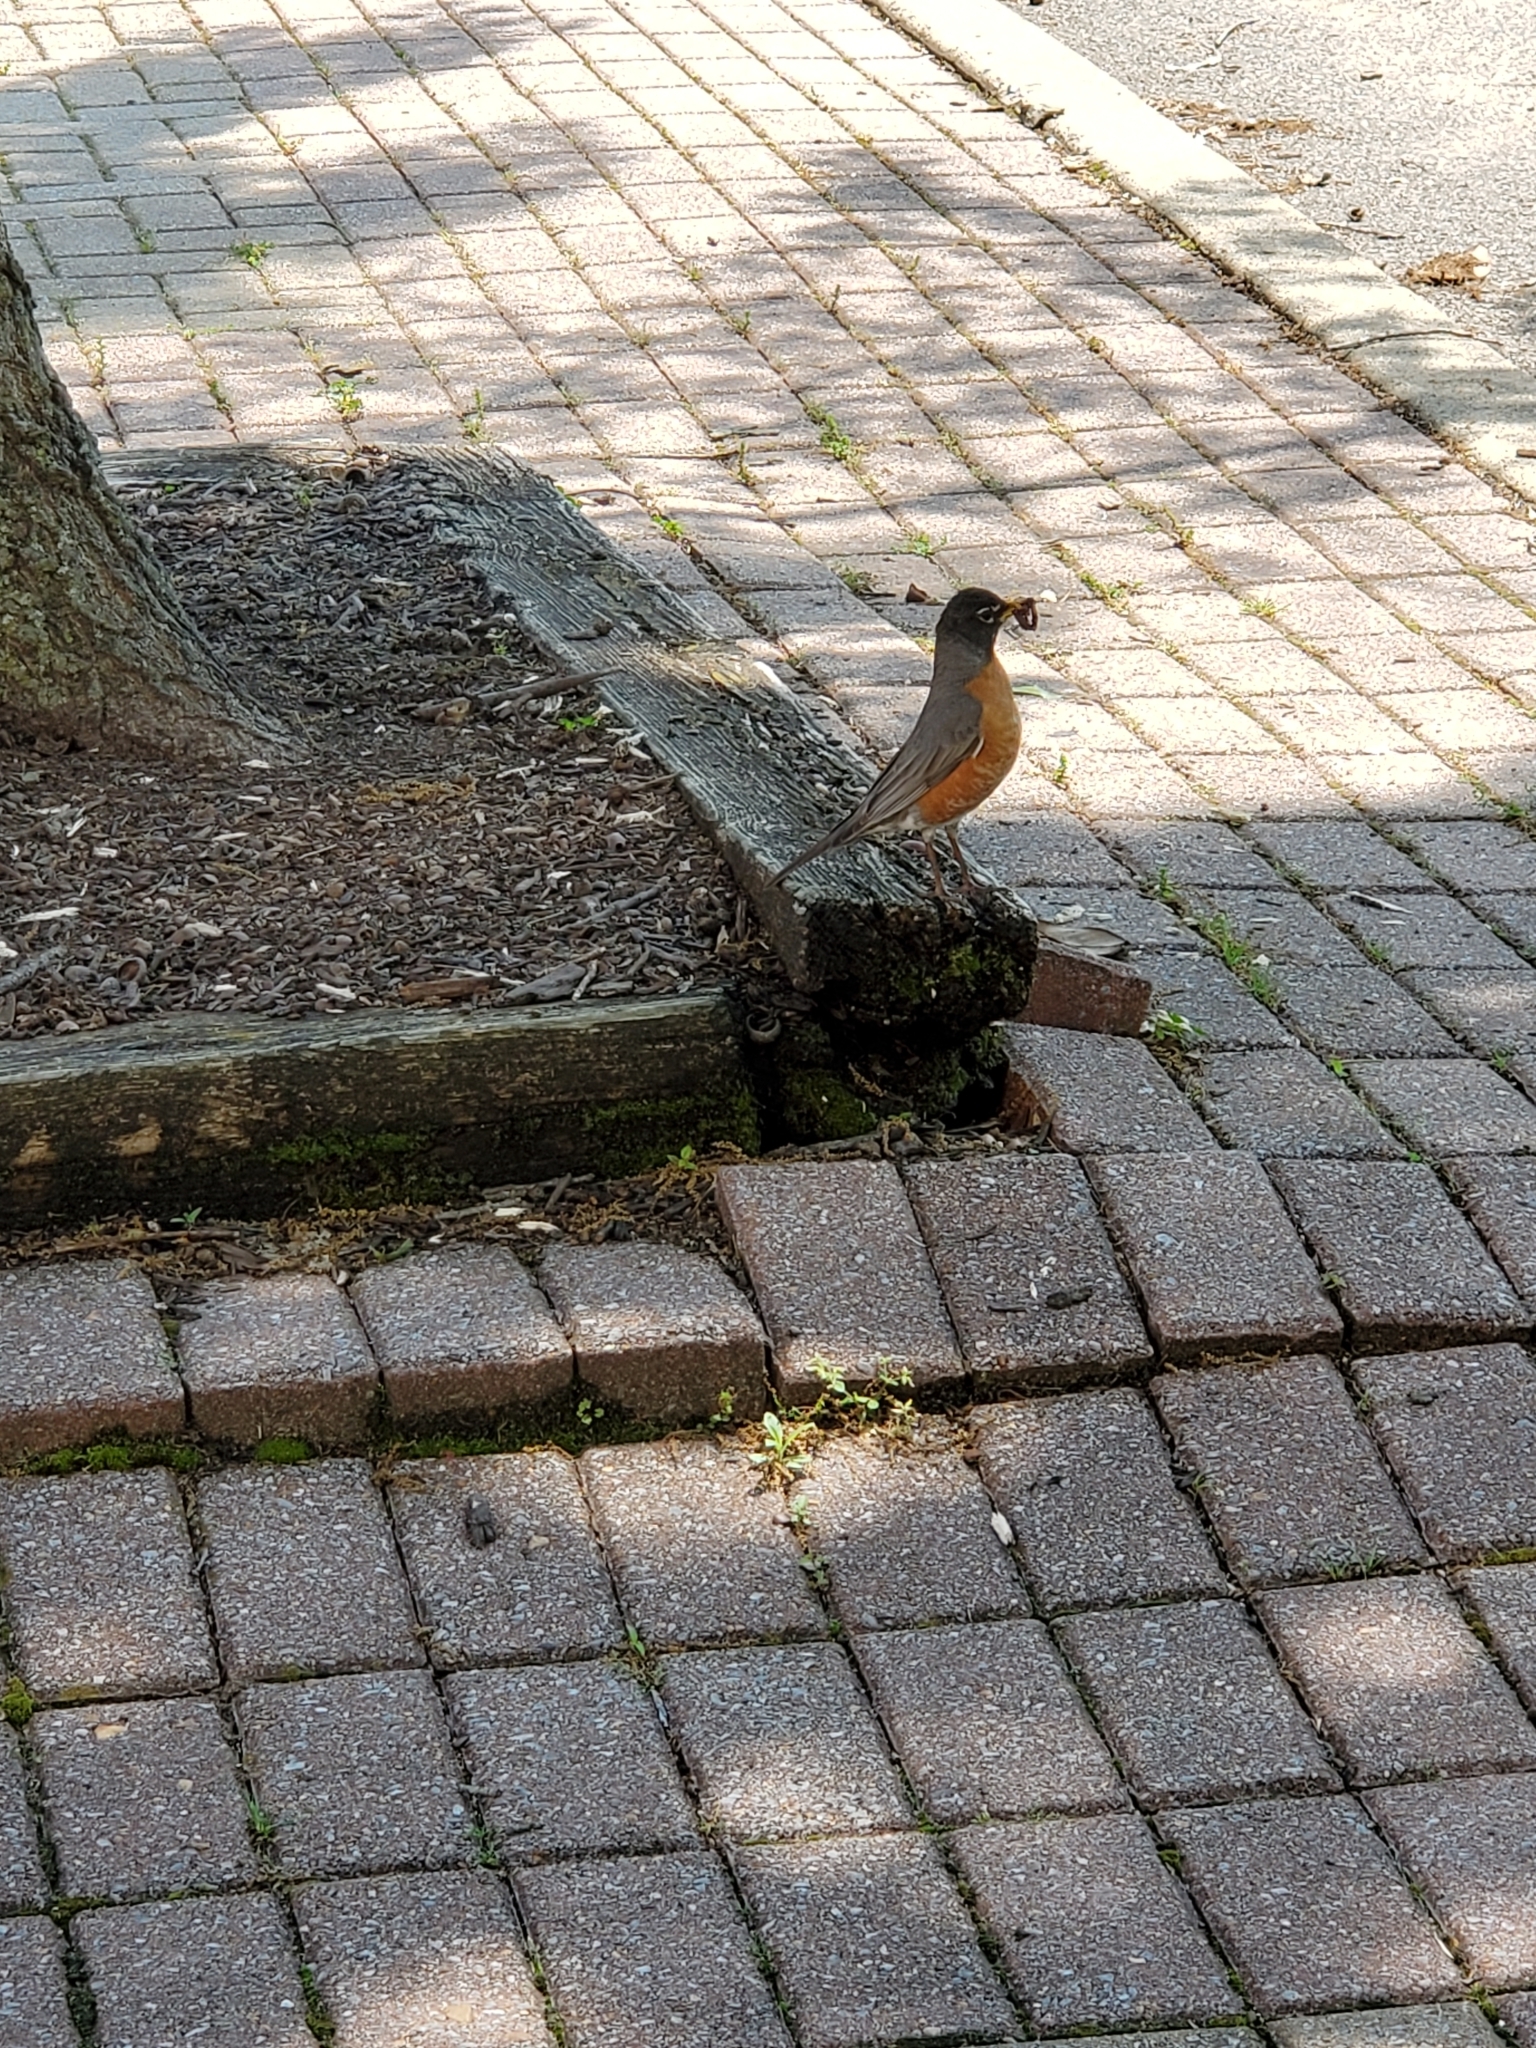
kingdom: Animalia
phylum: Chordata
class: Aves
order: Passeriformes
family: Turdidae
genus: Turdus
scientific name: Turdus migratorius
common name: American robin
